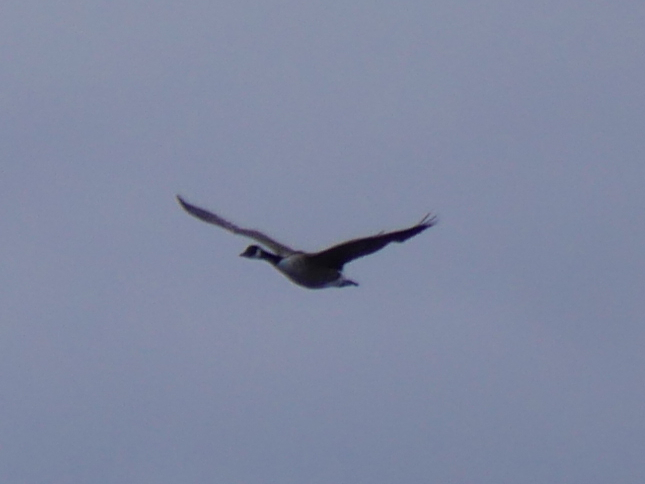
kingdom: Animalia
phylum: Chordata
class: Aves
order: Anseriformes
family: Anatidae
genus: Branta
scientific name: Branta canadensis
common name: Canada goose
